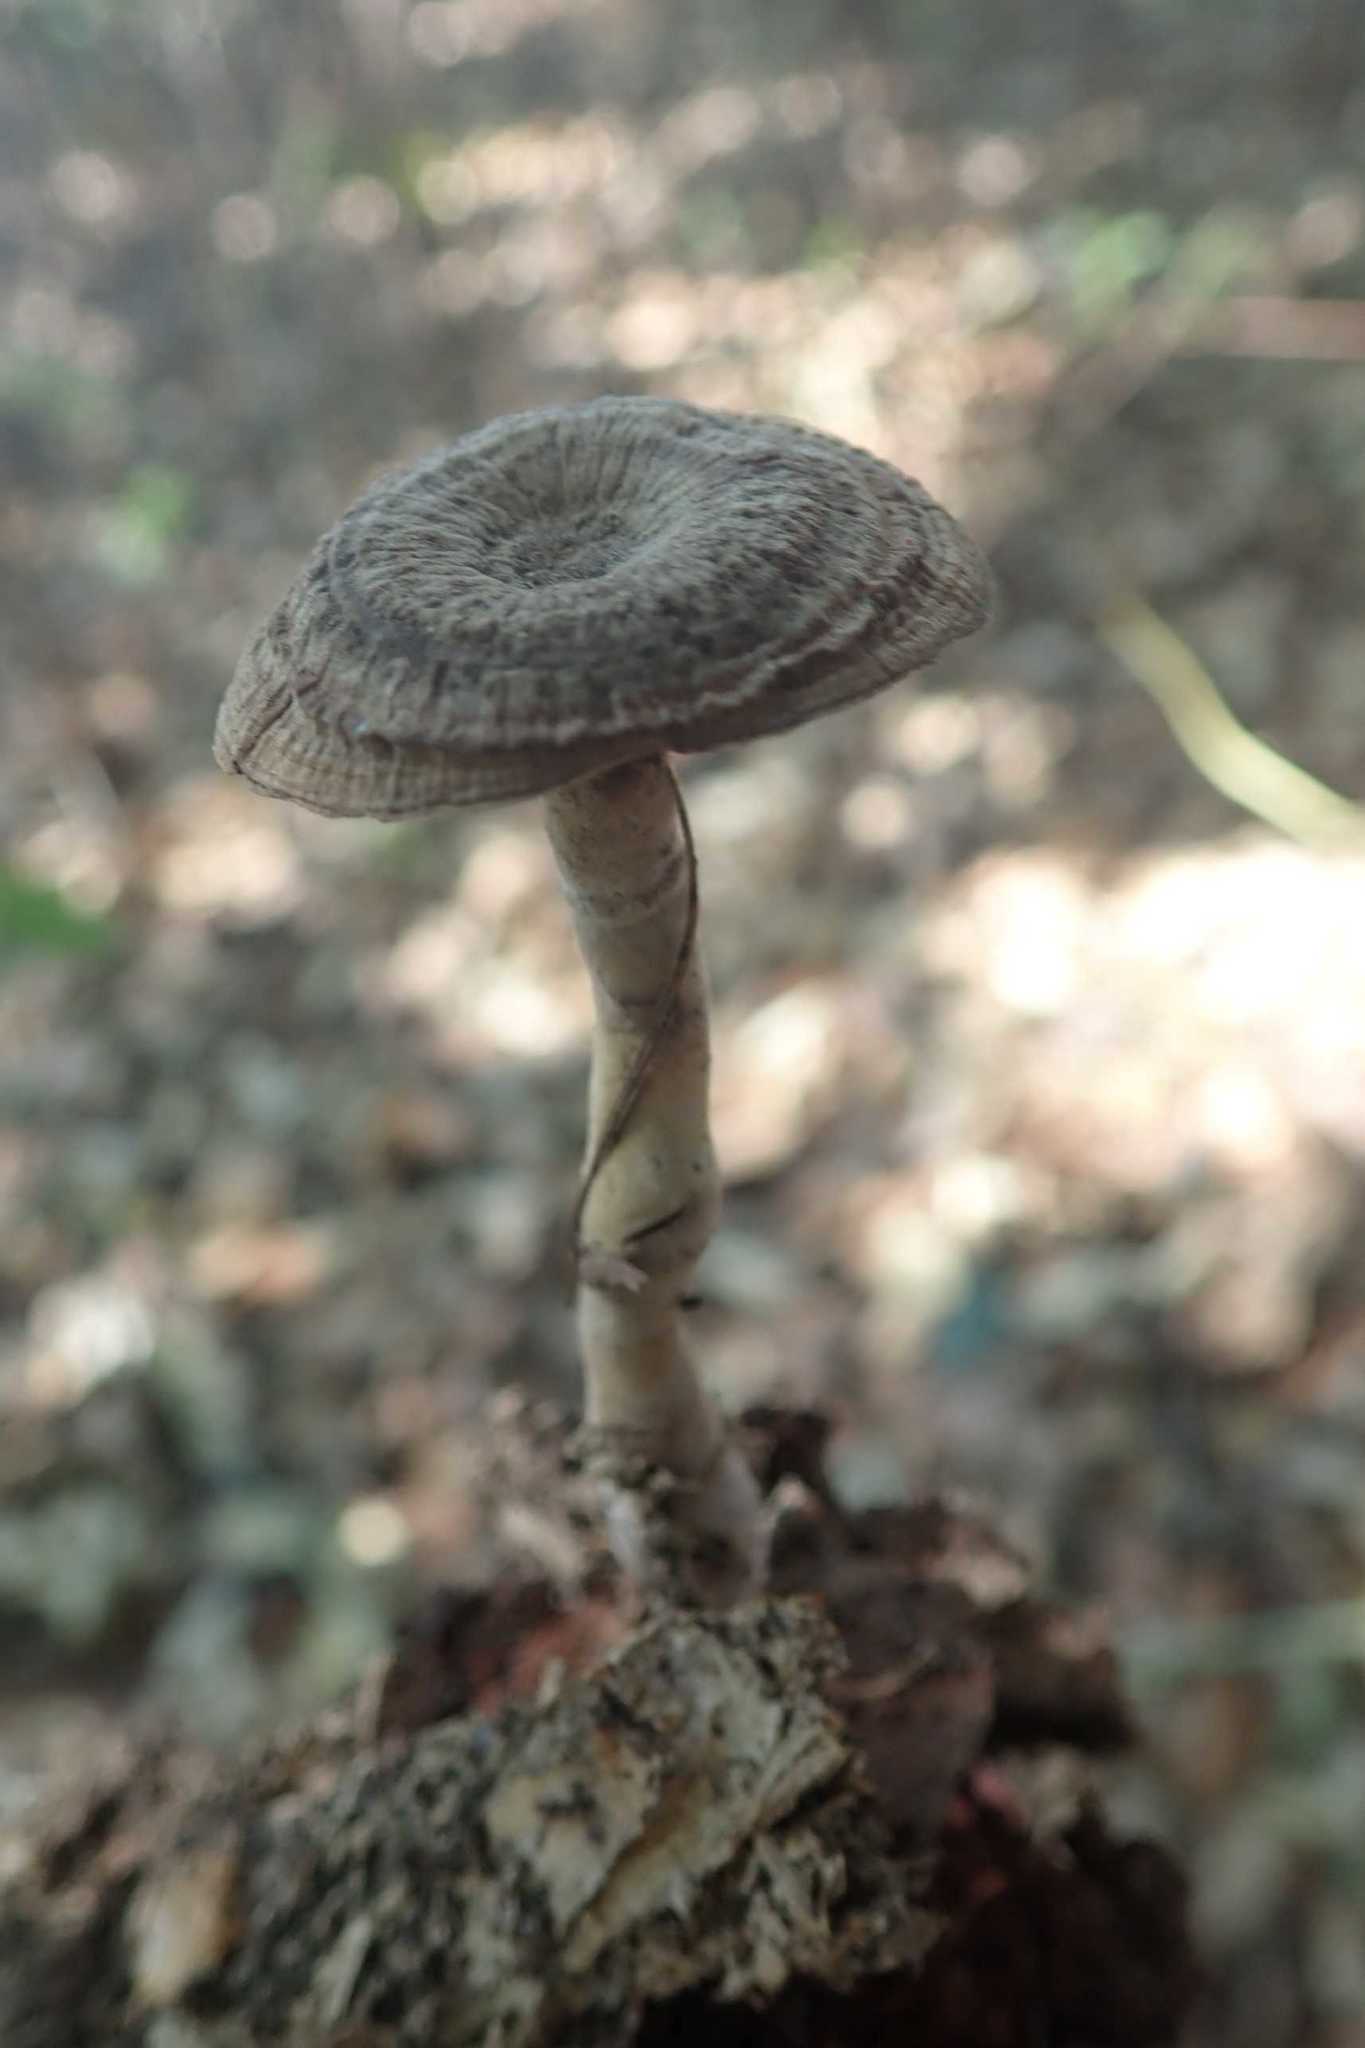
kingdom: Fungi
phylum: Basidiomycota
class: Agaricomycetes
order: Polyporales
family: Polyporaceae
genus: Lignosus
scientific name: Lignosus sacer
